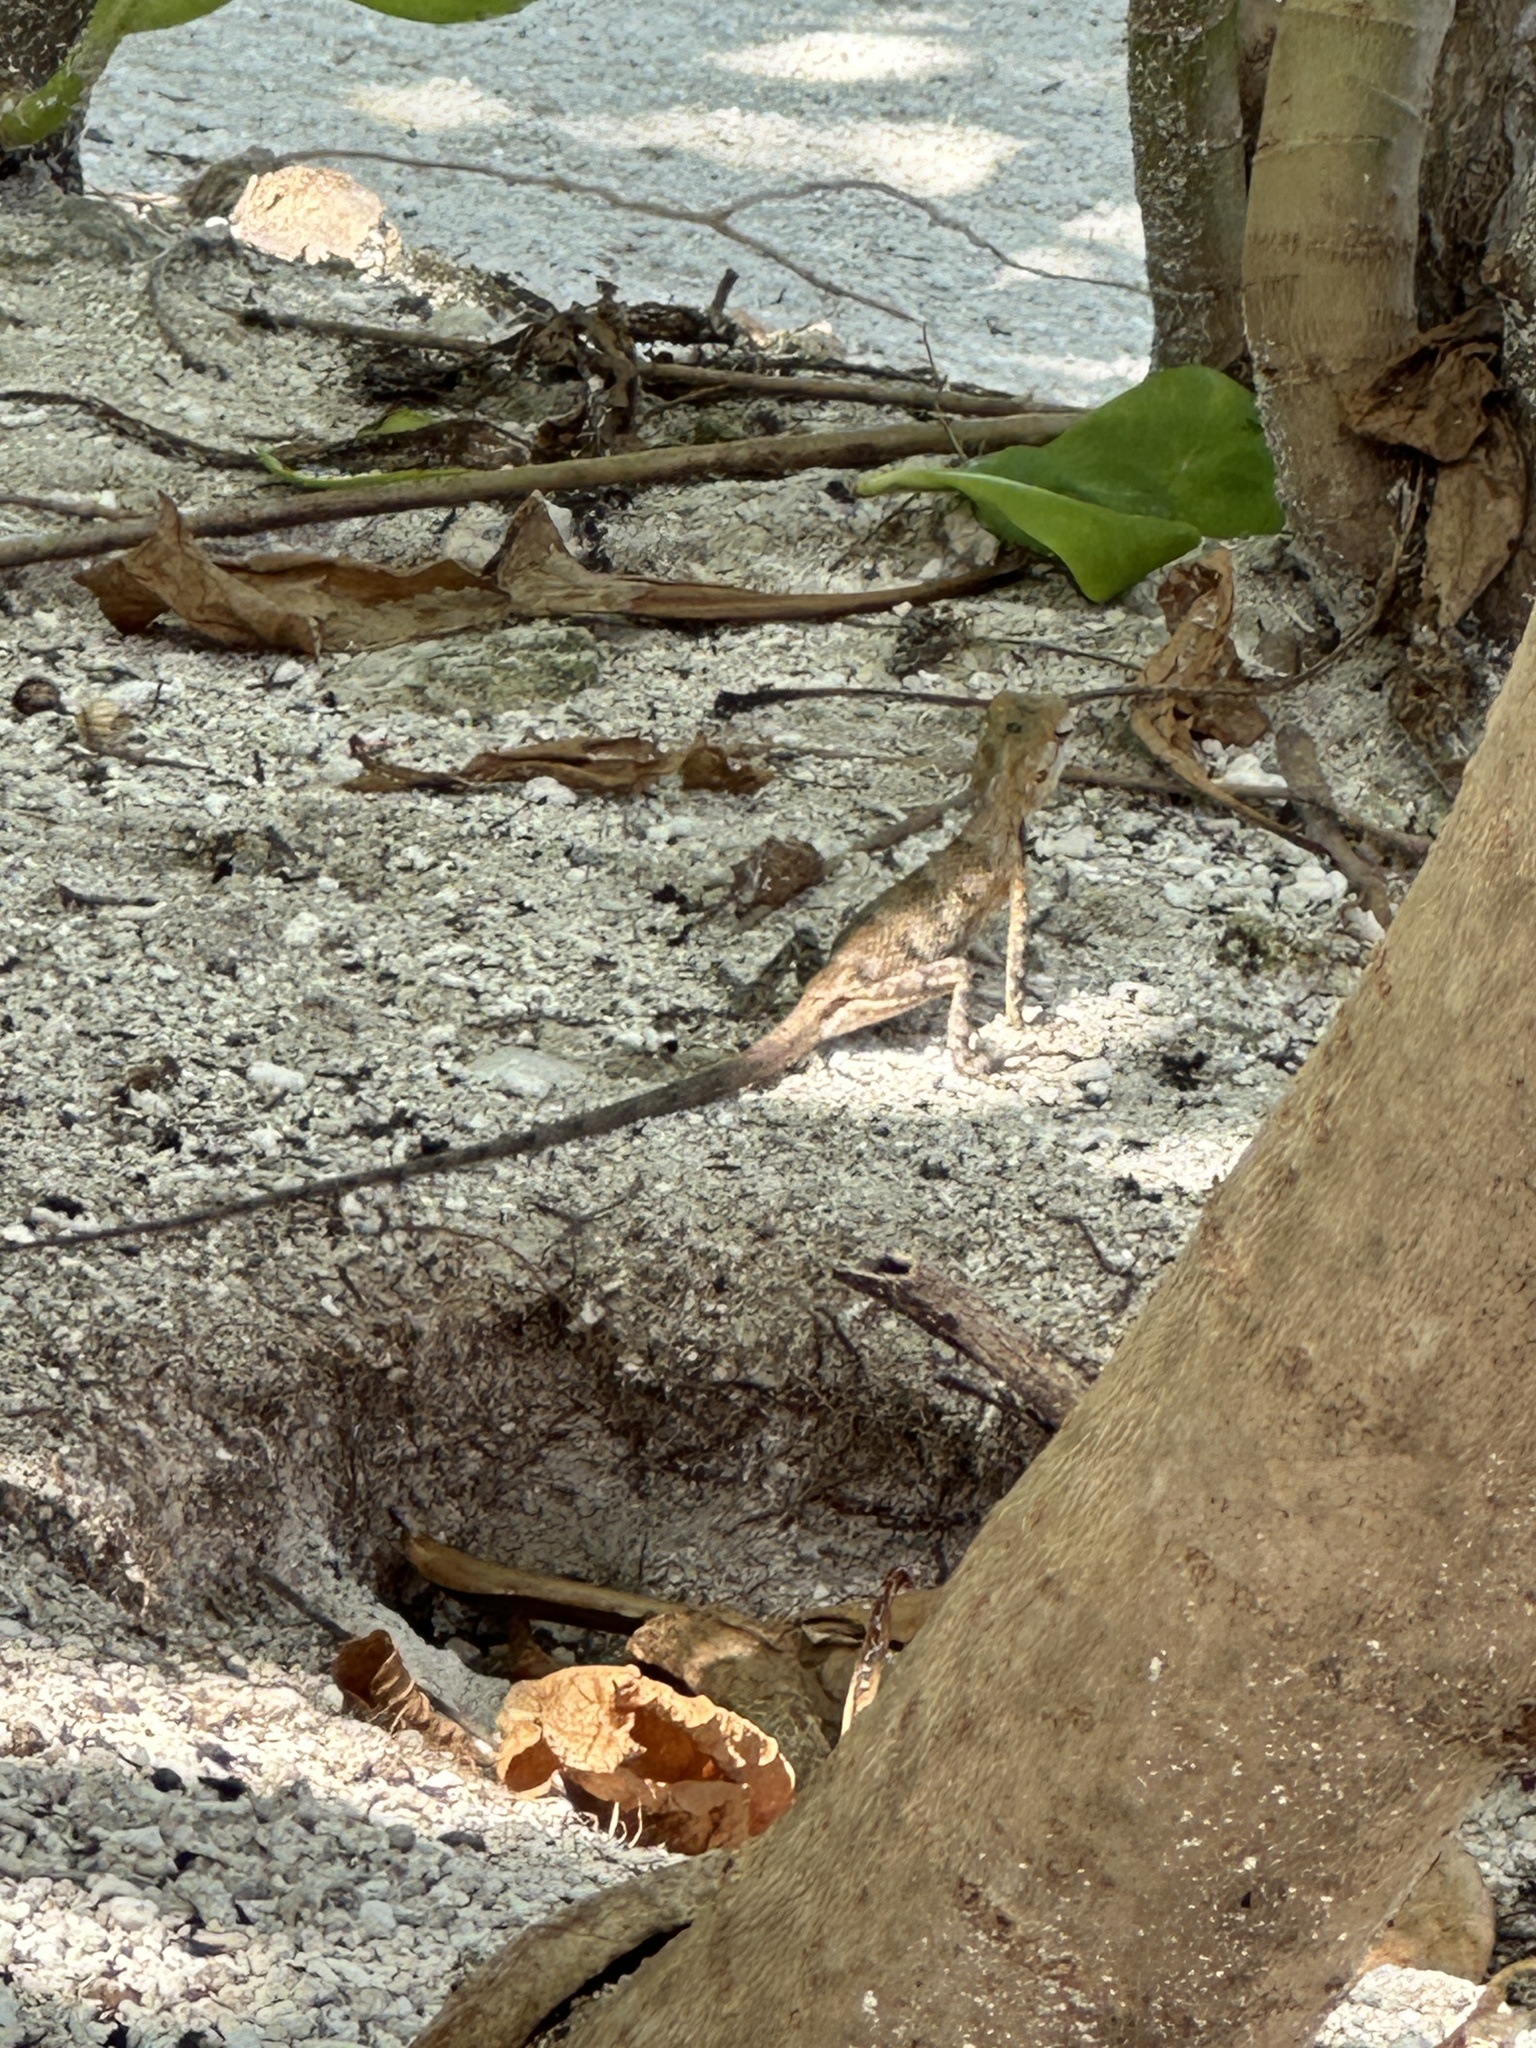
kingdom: Animalia
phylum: Chordata
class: Squamata
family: Agamidae
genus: Calotes
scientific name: Calotes versicolor
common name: Oriental garden lizard
